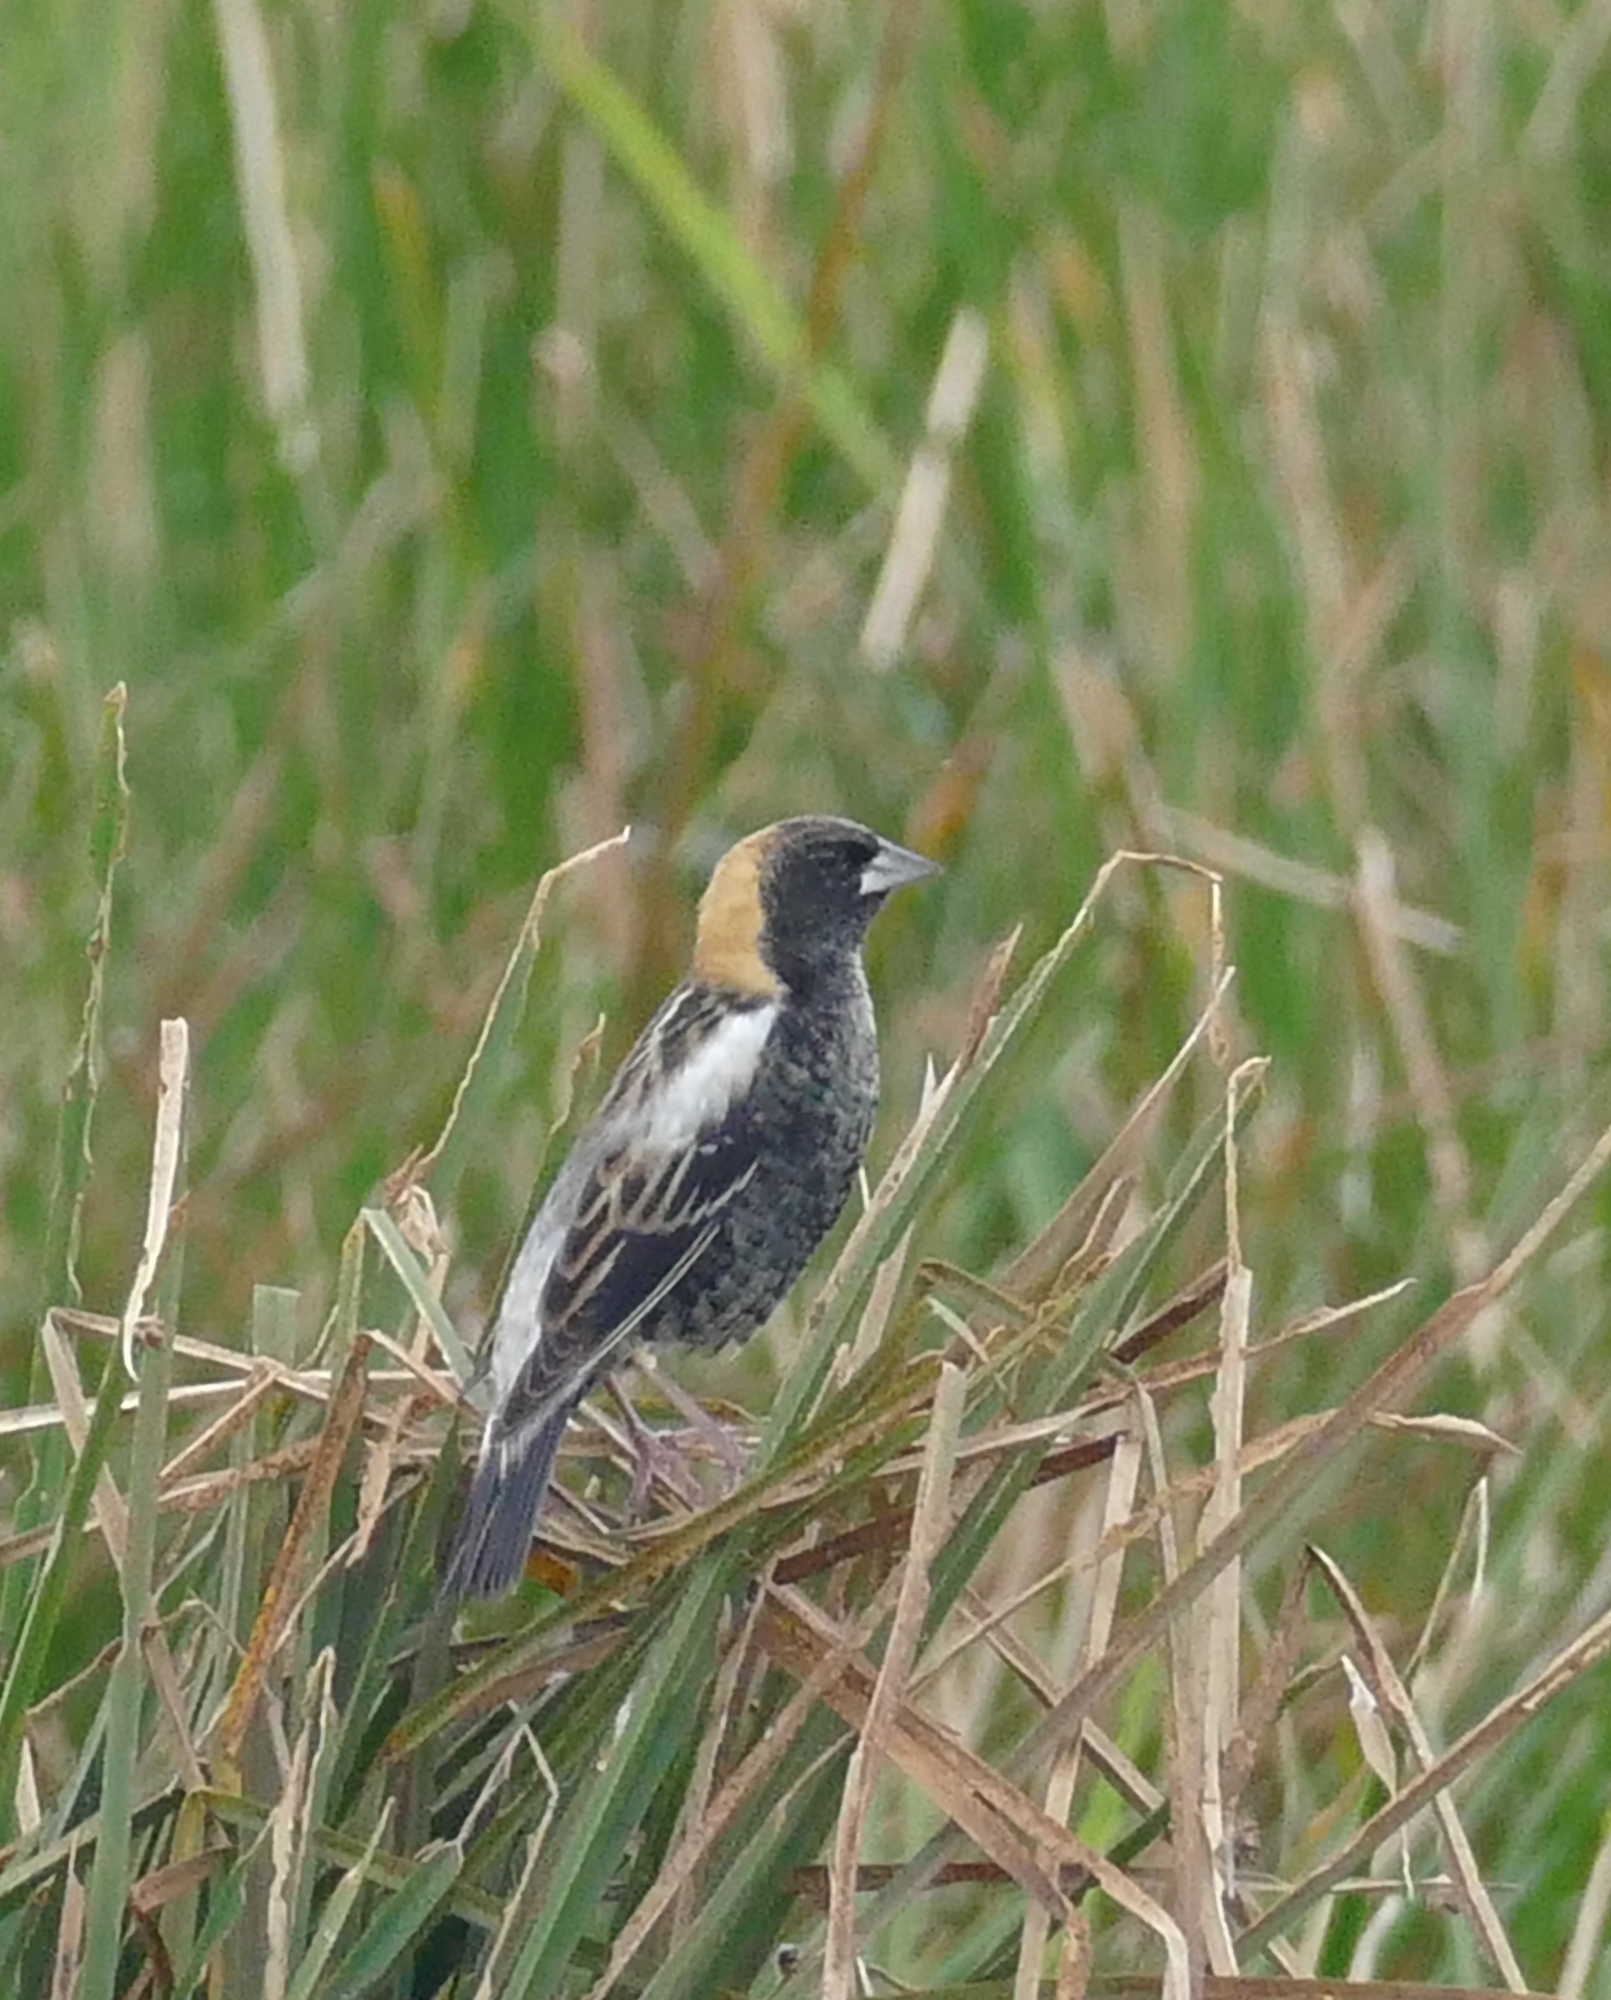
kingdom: Animalia
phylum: Chordata
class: Aves
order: Passeriformes
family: Icteridae
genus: Dolichonyx
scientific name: Dolichonyx oryzivorus
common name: Bobolink
